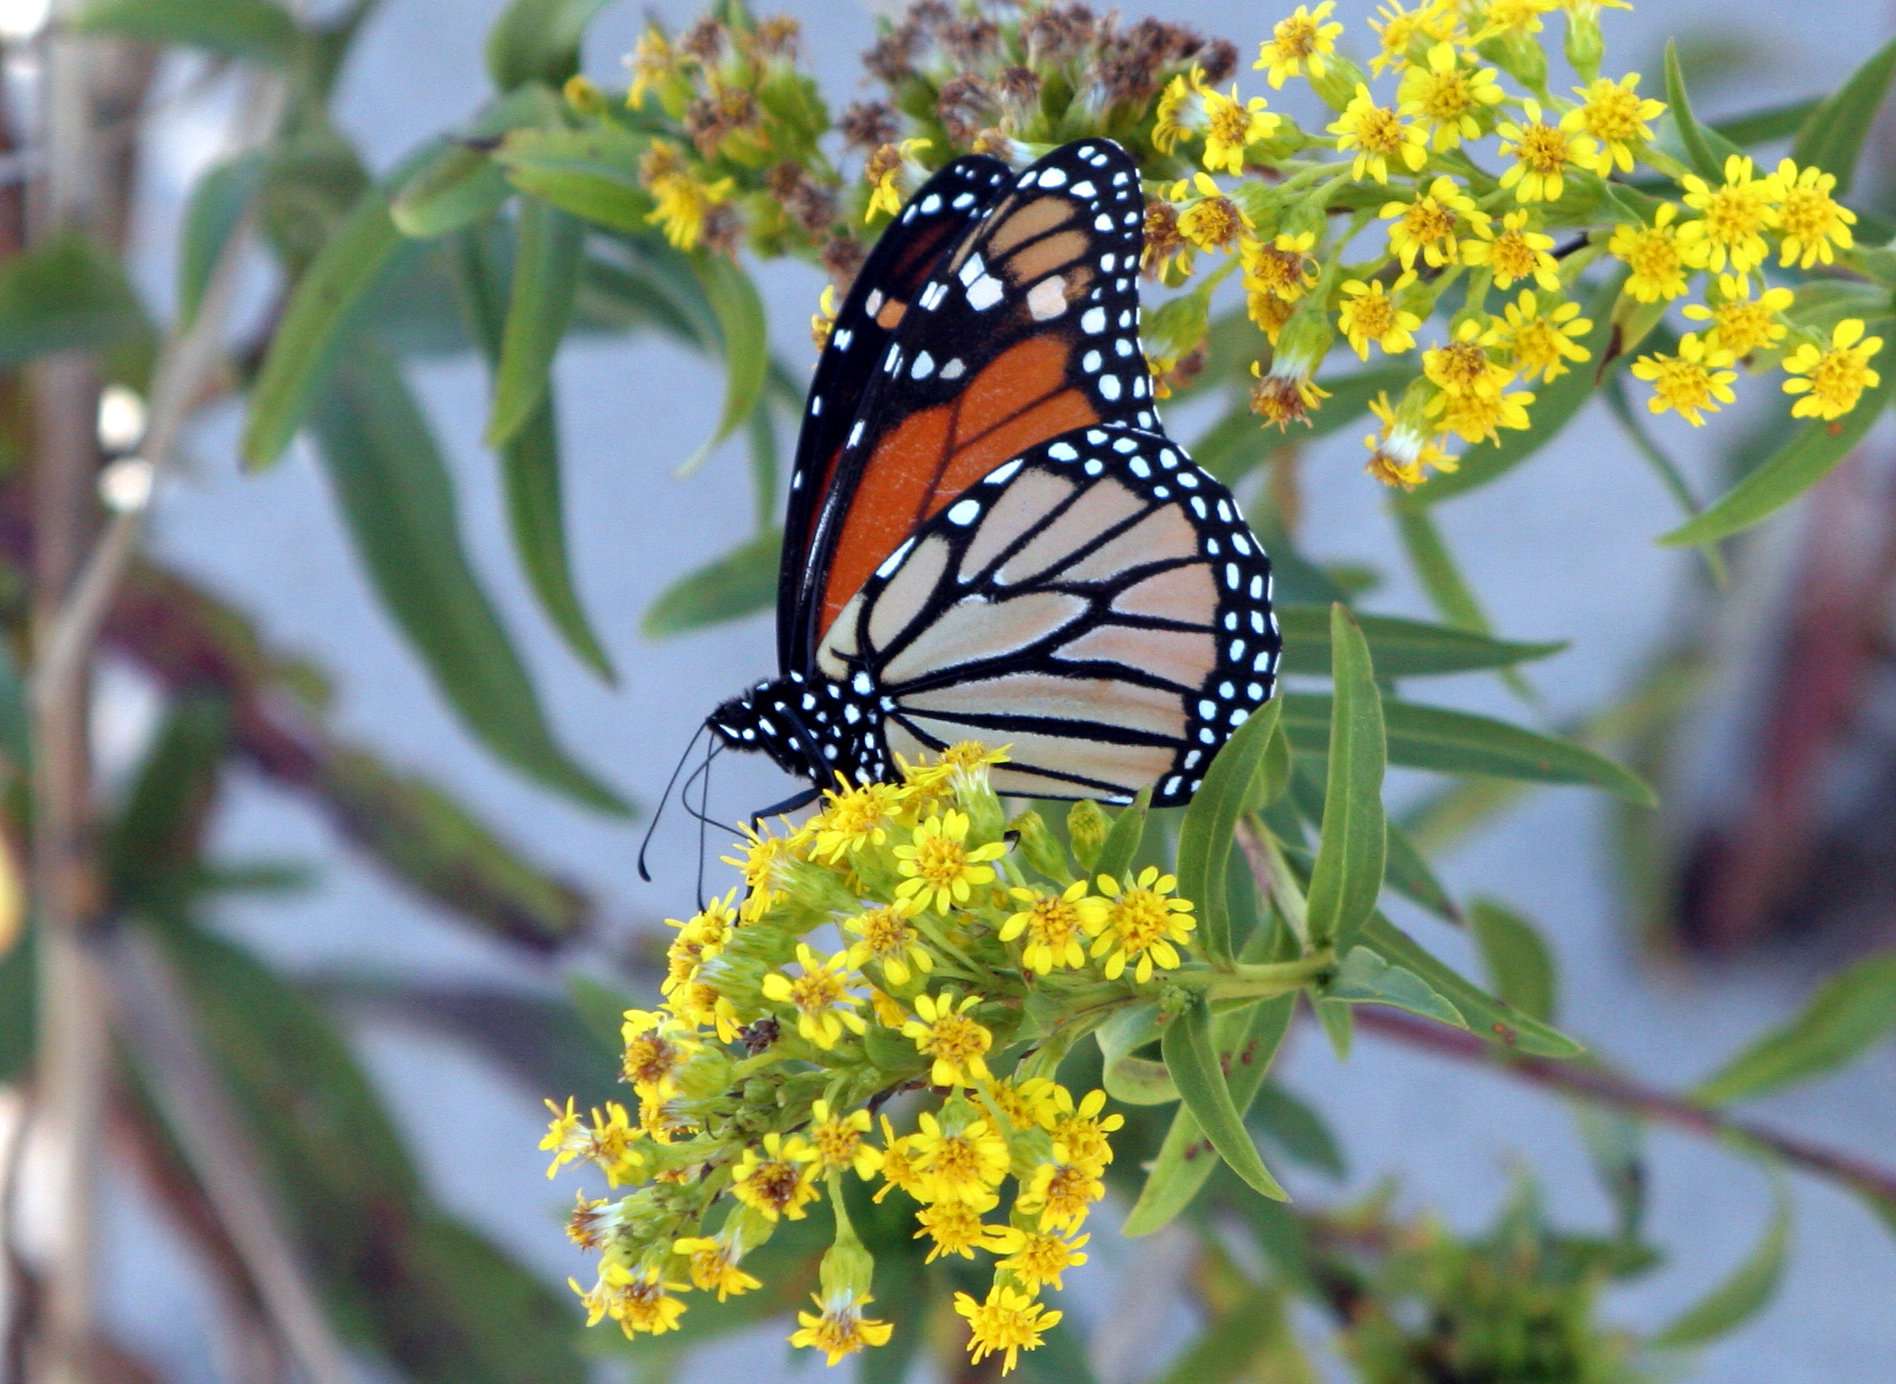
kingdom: Animalia
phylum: Arthropoda
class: Insecta
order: Lepidoptera
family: Nymphalidae
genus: Danaus
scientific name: Danaus plexippus
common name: Monarch
